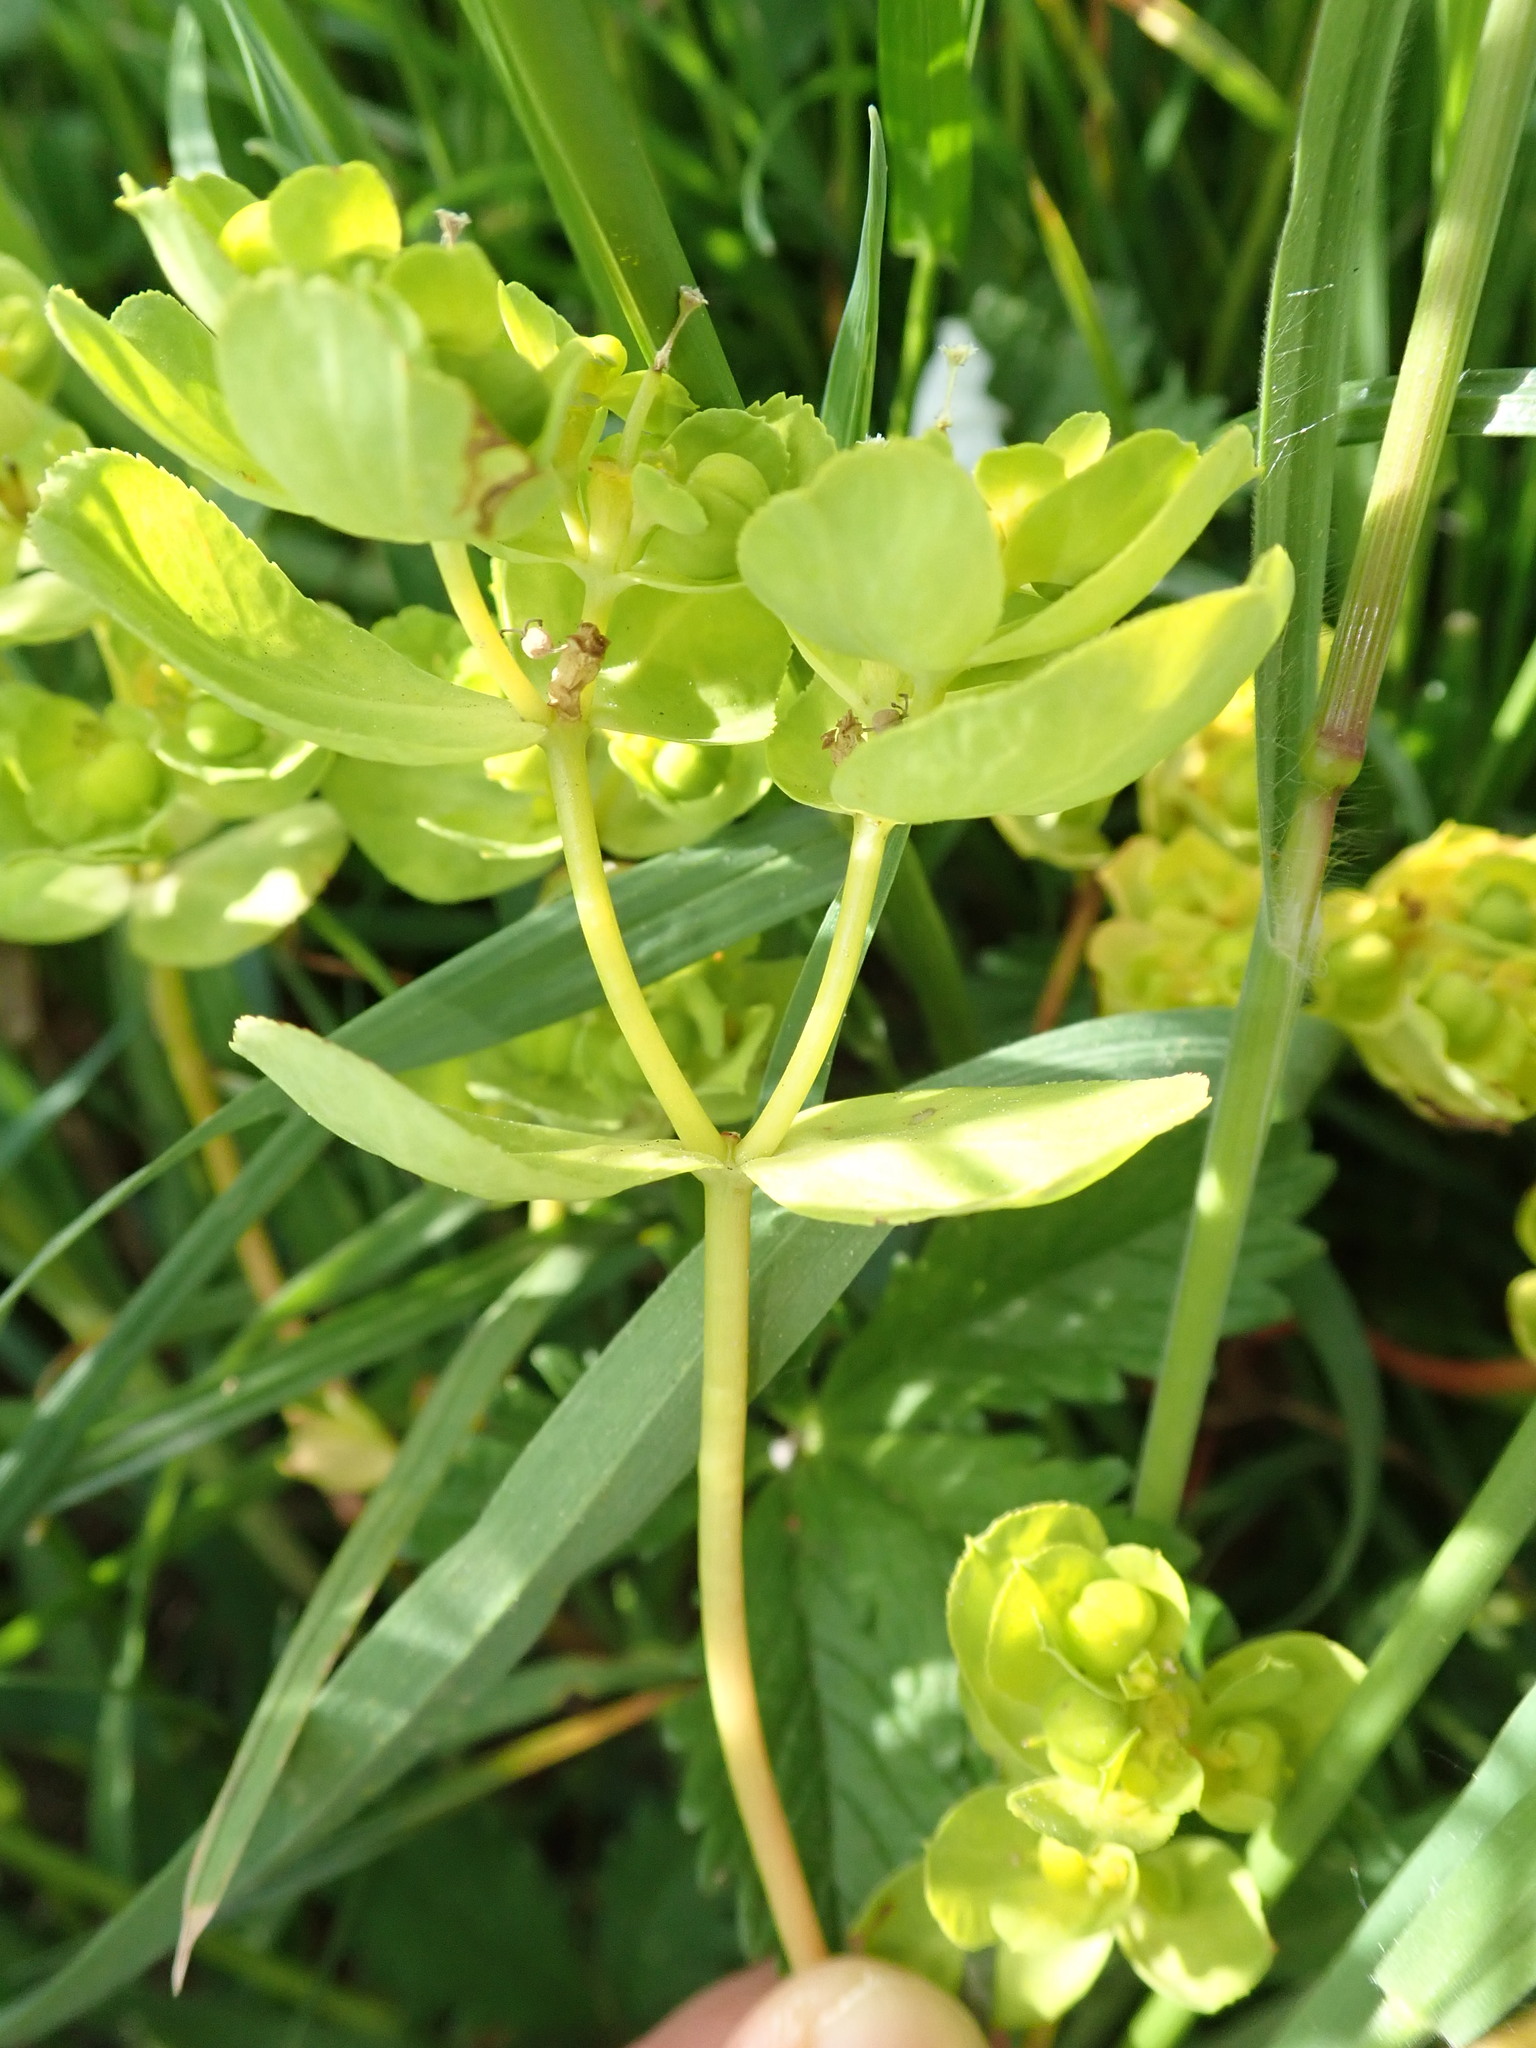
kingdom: Plantae
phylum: Tracheophyta
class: Magnoliopsida
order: Malpighiales
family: Euphorbiaceae
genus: Euphorbia
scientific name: Euphorbia helioscopia
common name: Sun spurge
